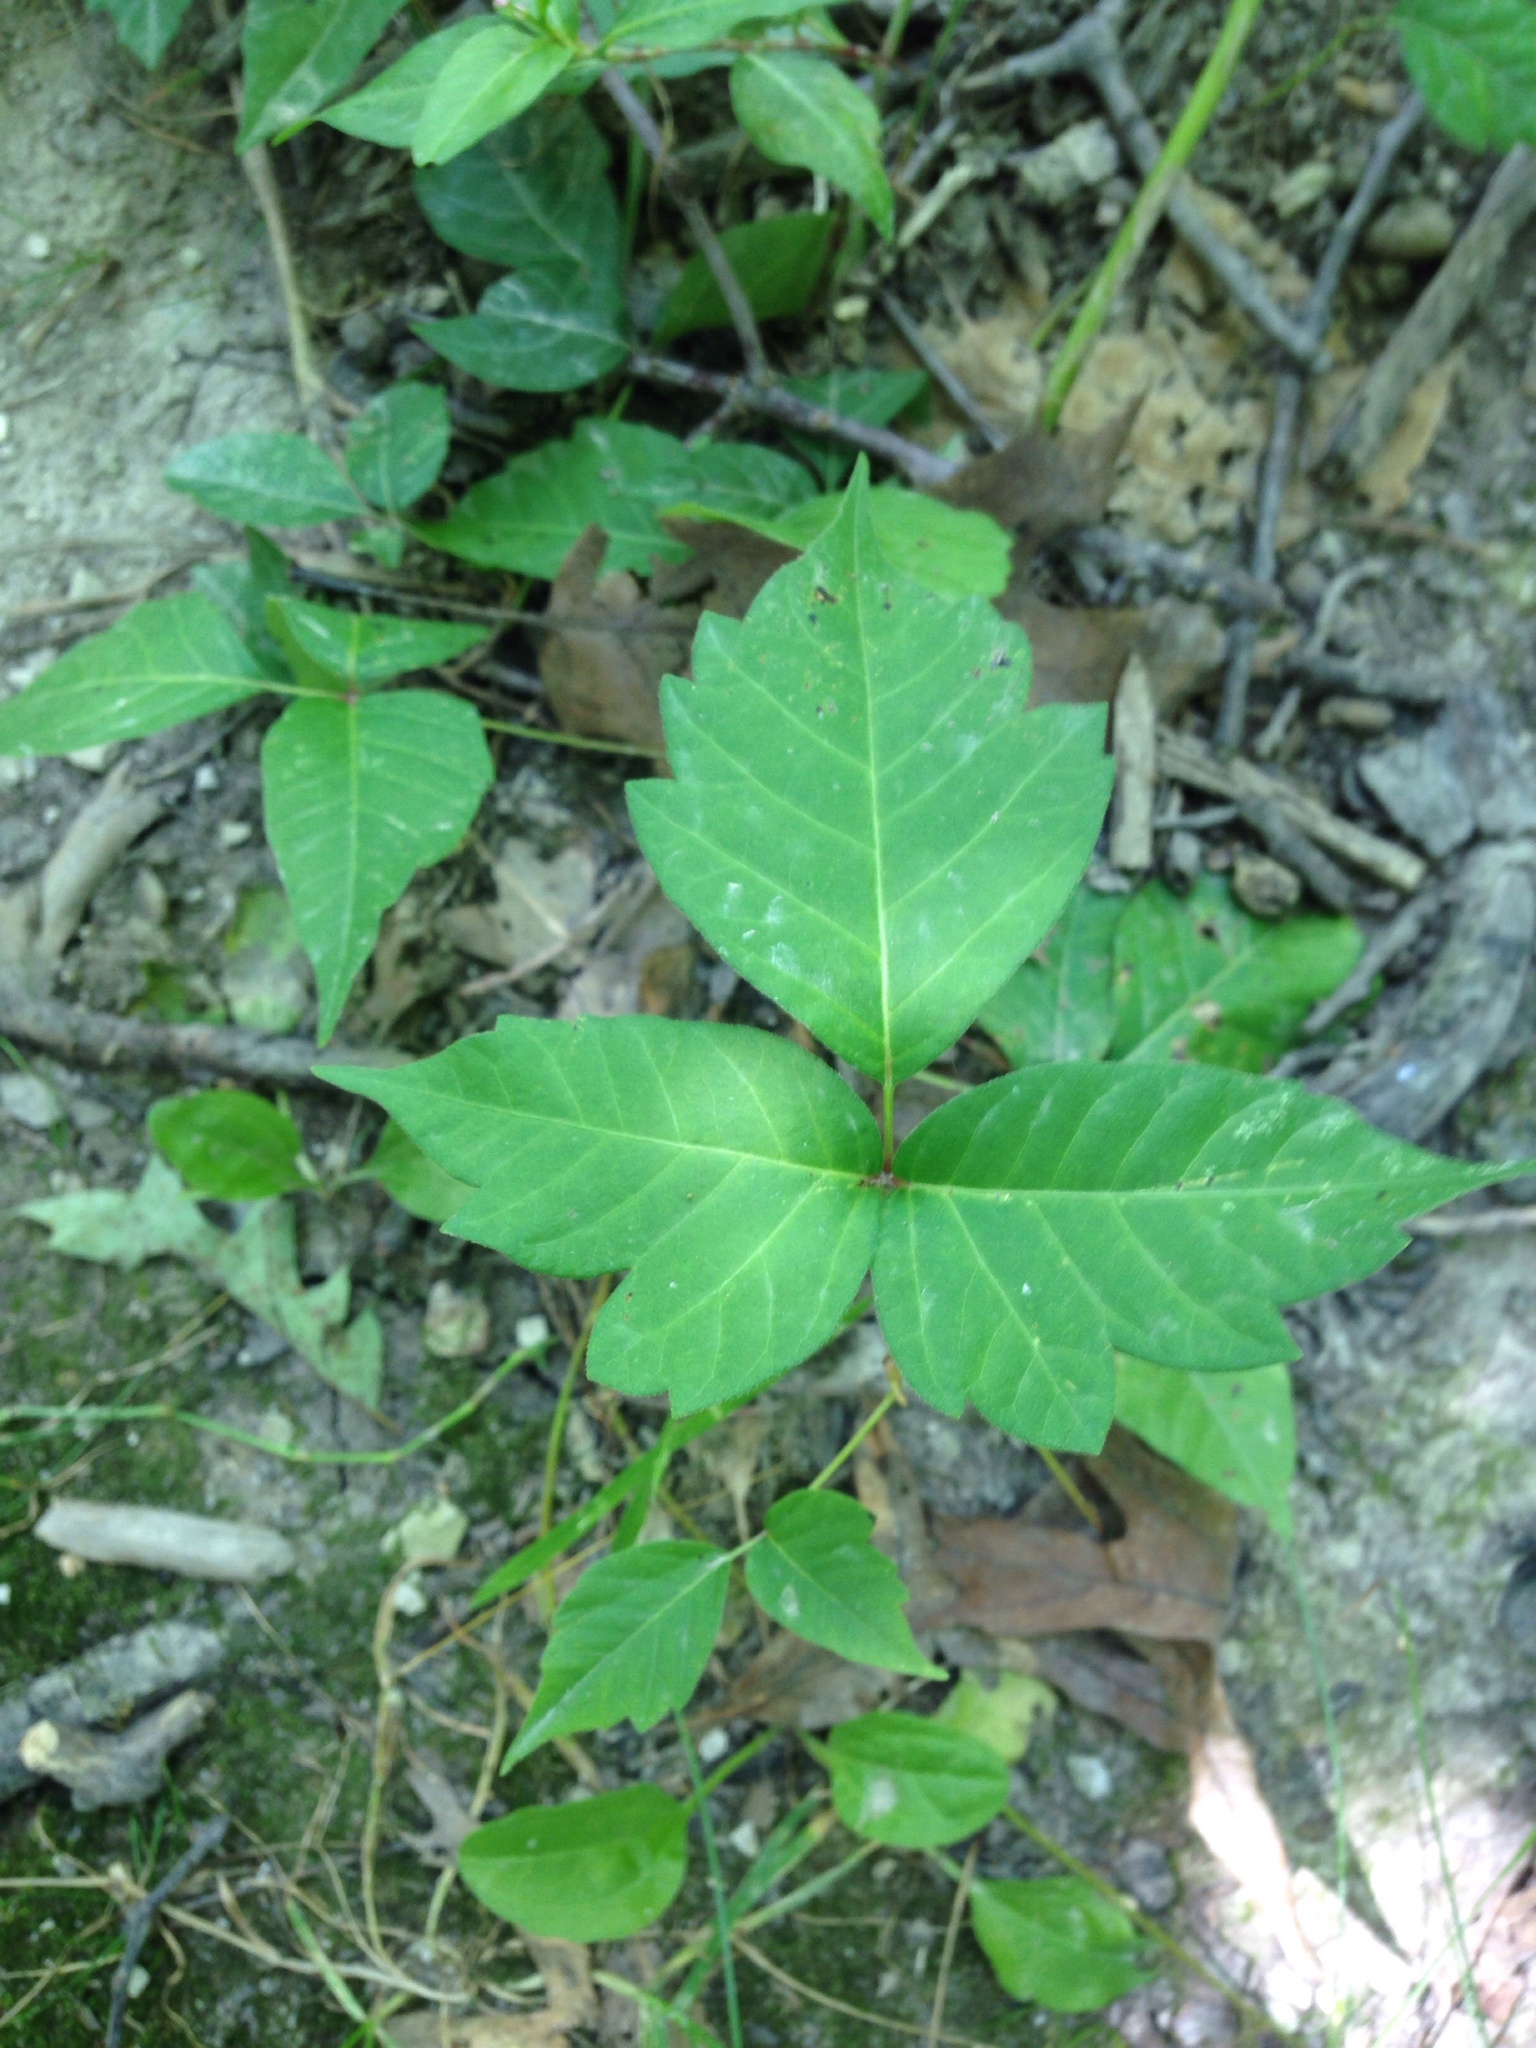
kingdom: Plantae
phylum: Tracheophyta
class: Magnoliopsida
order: Sapindales
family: Anacardiaceae
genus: Toxicodendron
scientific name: Toxicodendron radicans
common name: Poison ivy
